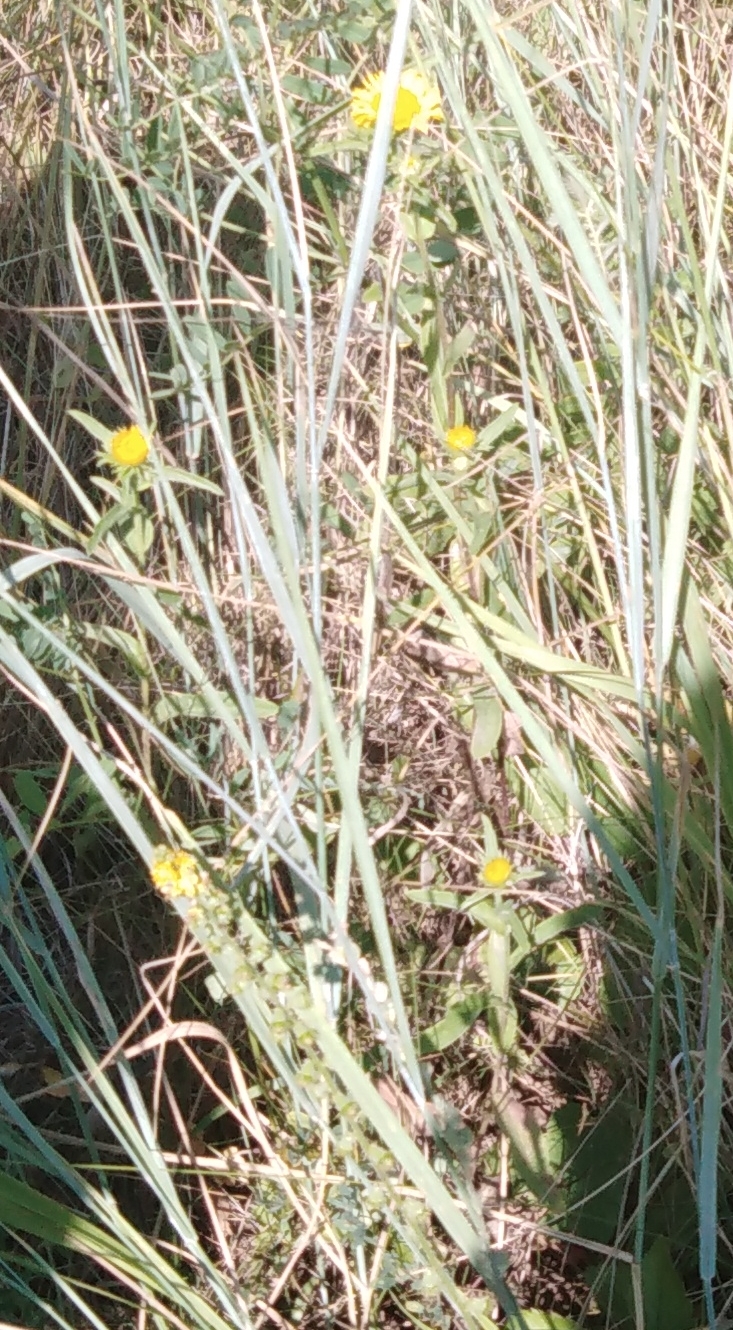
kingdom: Plantae
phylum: Tracheophyta
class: Magnoliopsida
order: Asterales
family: Asteraceae
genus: Pentanema
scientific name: Pentanema britannicum
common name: British elecampane
